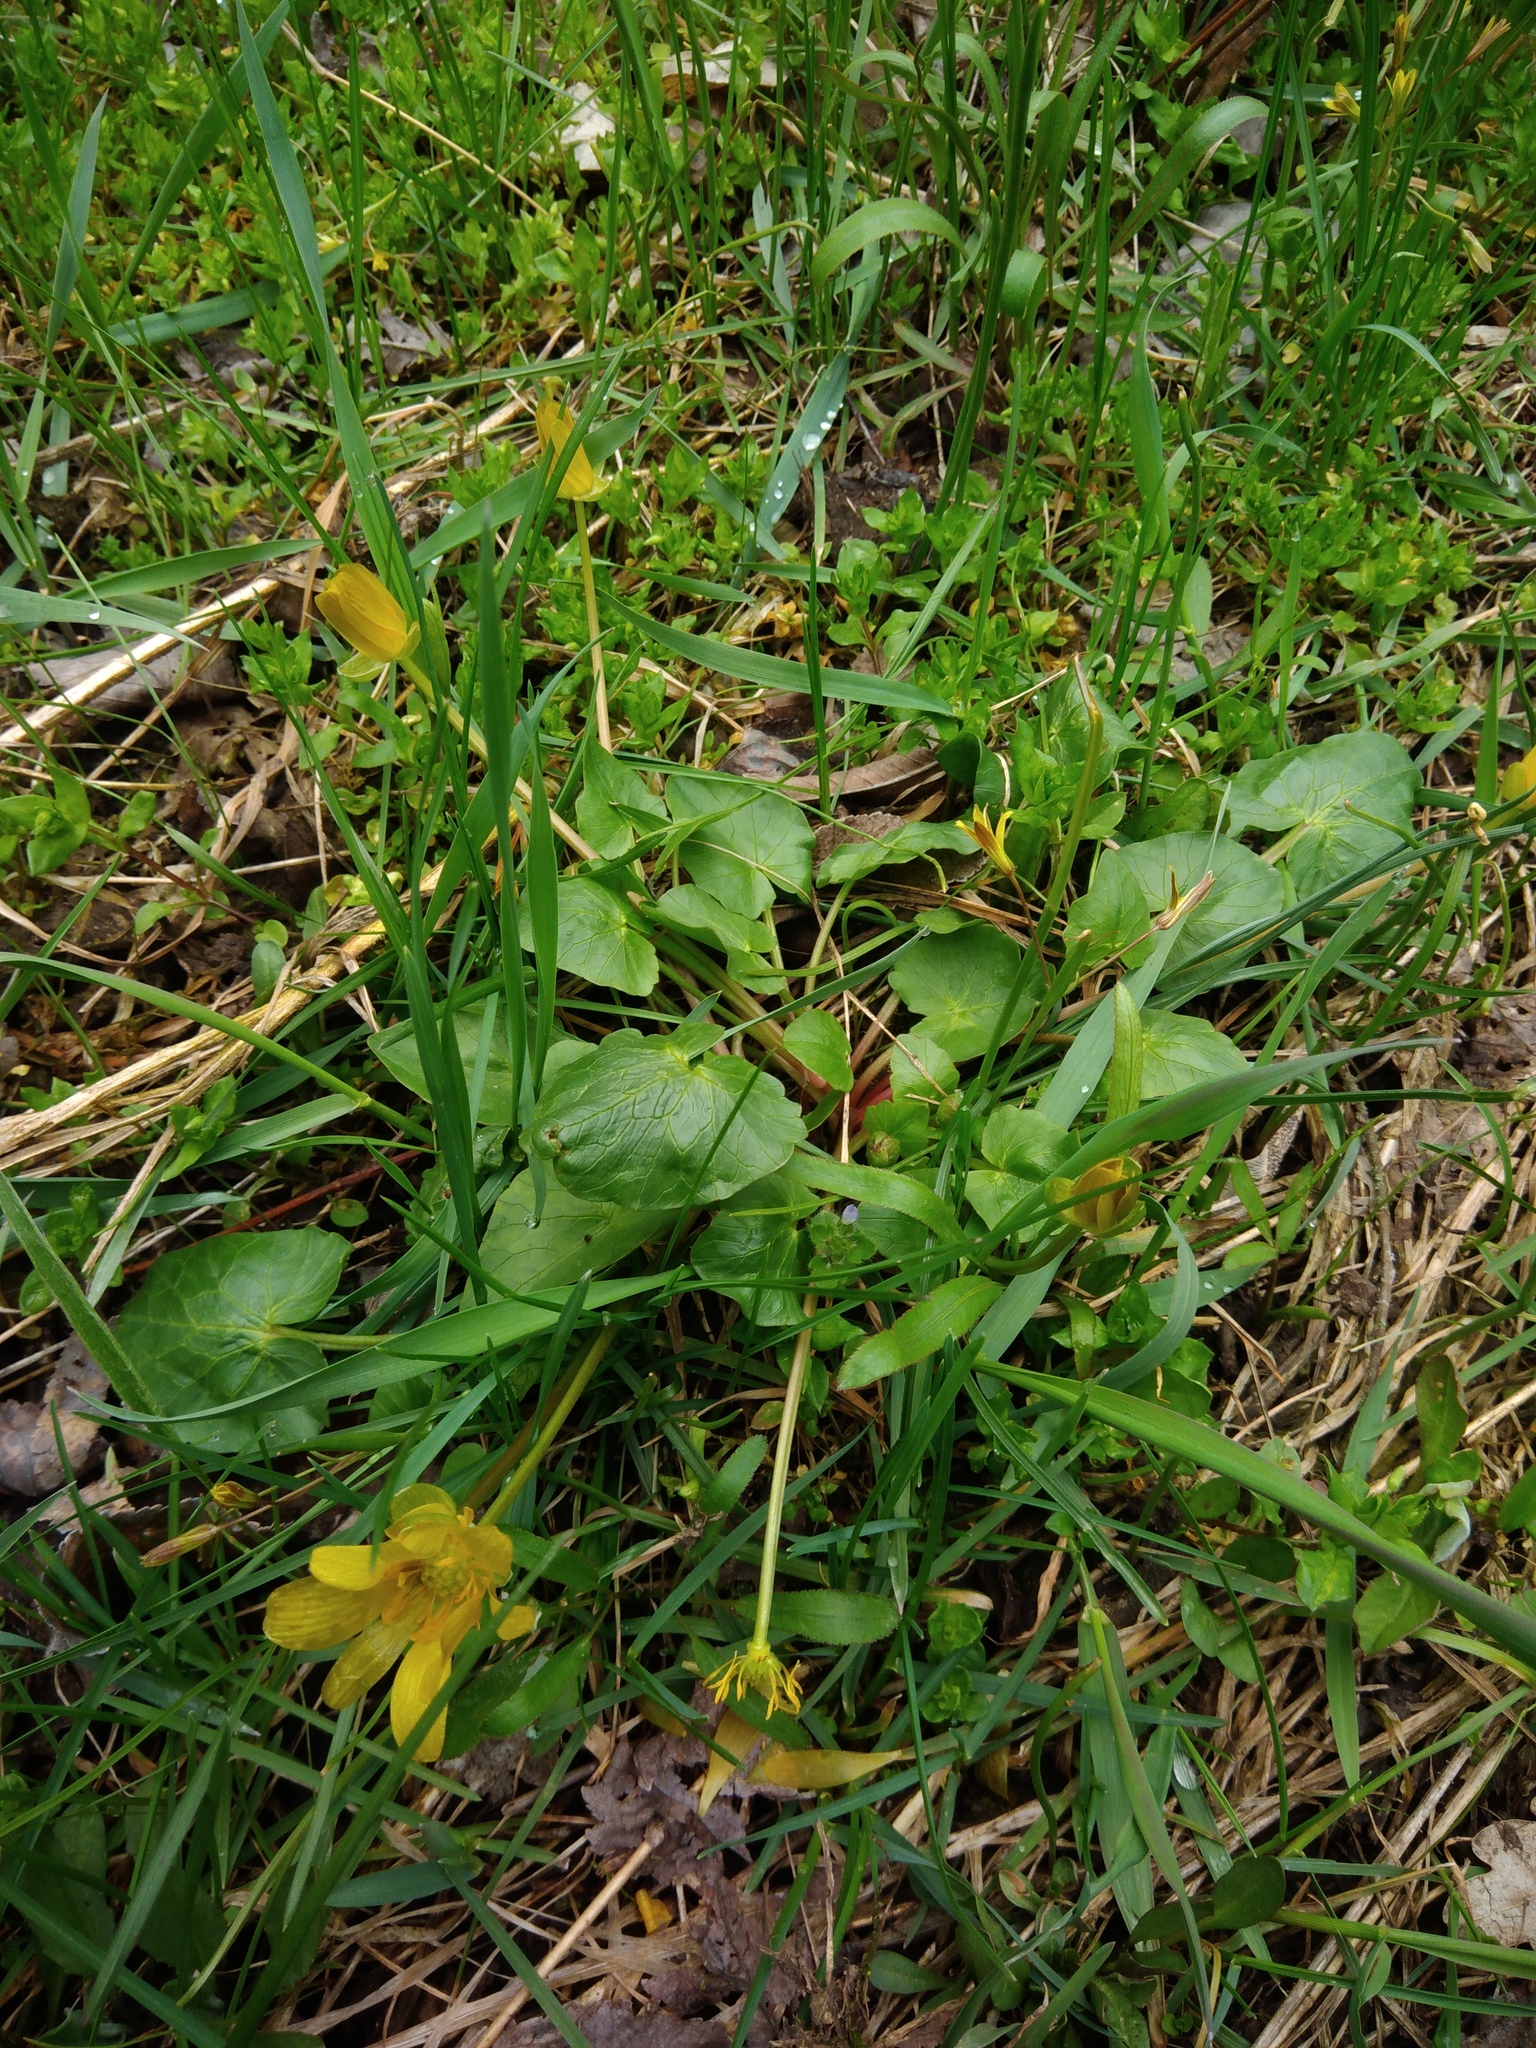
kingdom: Plantae
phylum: Tracheophyta
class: Magnoliopsida
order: Ranunculales
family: Ranunculaceae
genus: Ficaria
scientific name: Ficaria verna
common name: Lesser celandine
